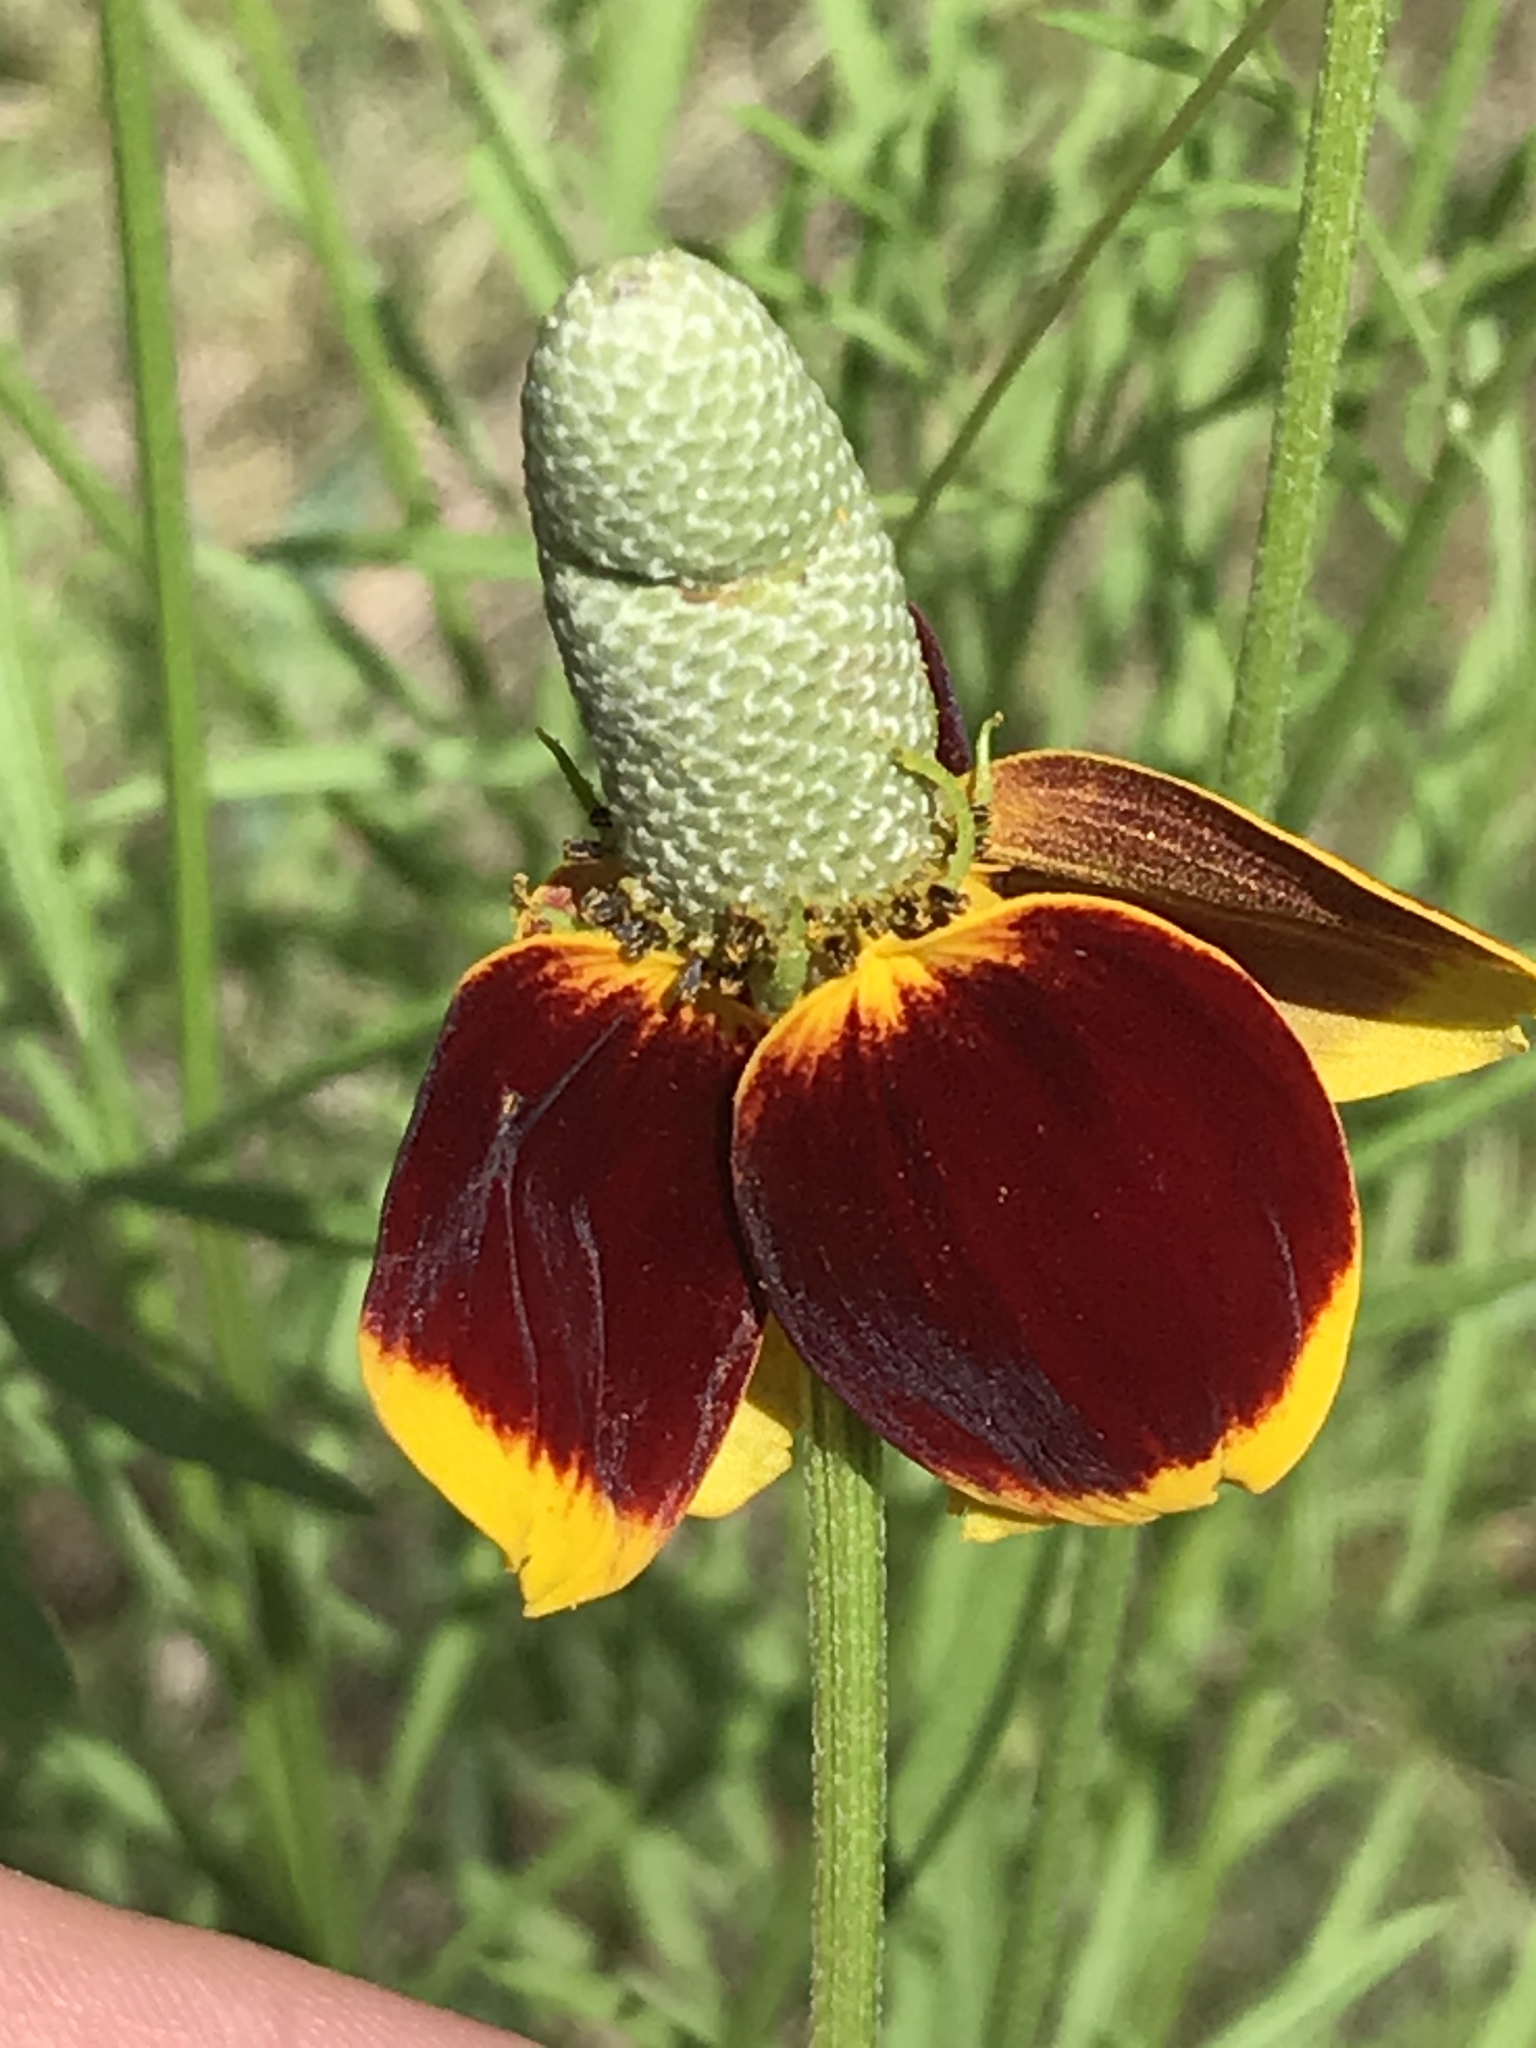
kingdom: Plantae
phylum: Tracheophyta
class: Magnoliopsida
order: Asterales
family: Asteraceae
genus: Ratibida
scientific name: Ratibida columnifera
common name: Prairie coneflower
